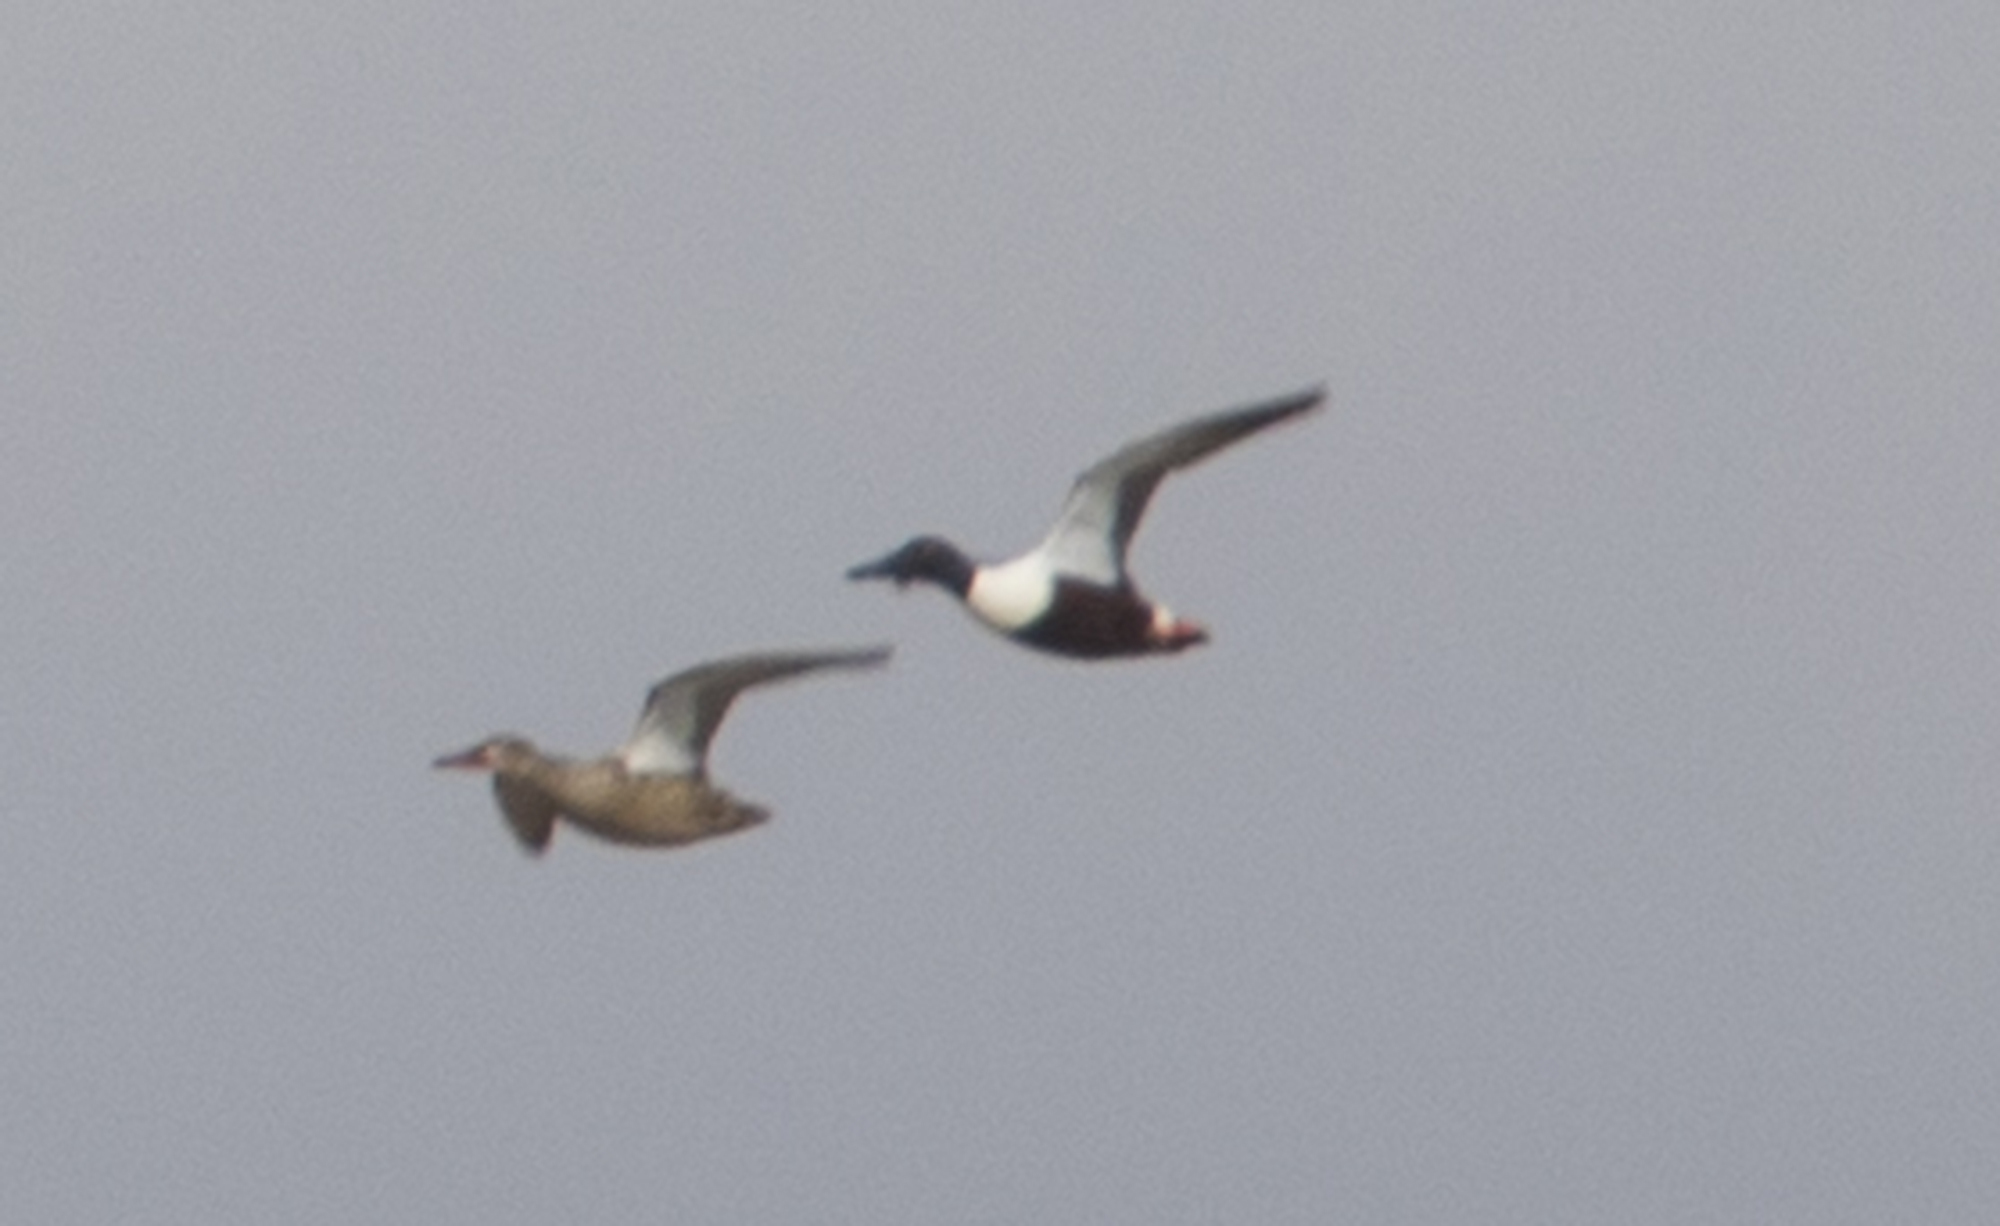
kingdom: Animalia
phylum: Chordata
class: Aves
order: Anseriformes
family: Anatidae
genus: Spatula
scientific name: Spatula clypeata
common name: Northern shoveler
